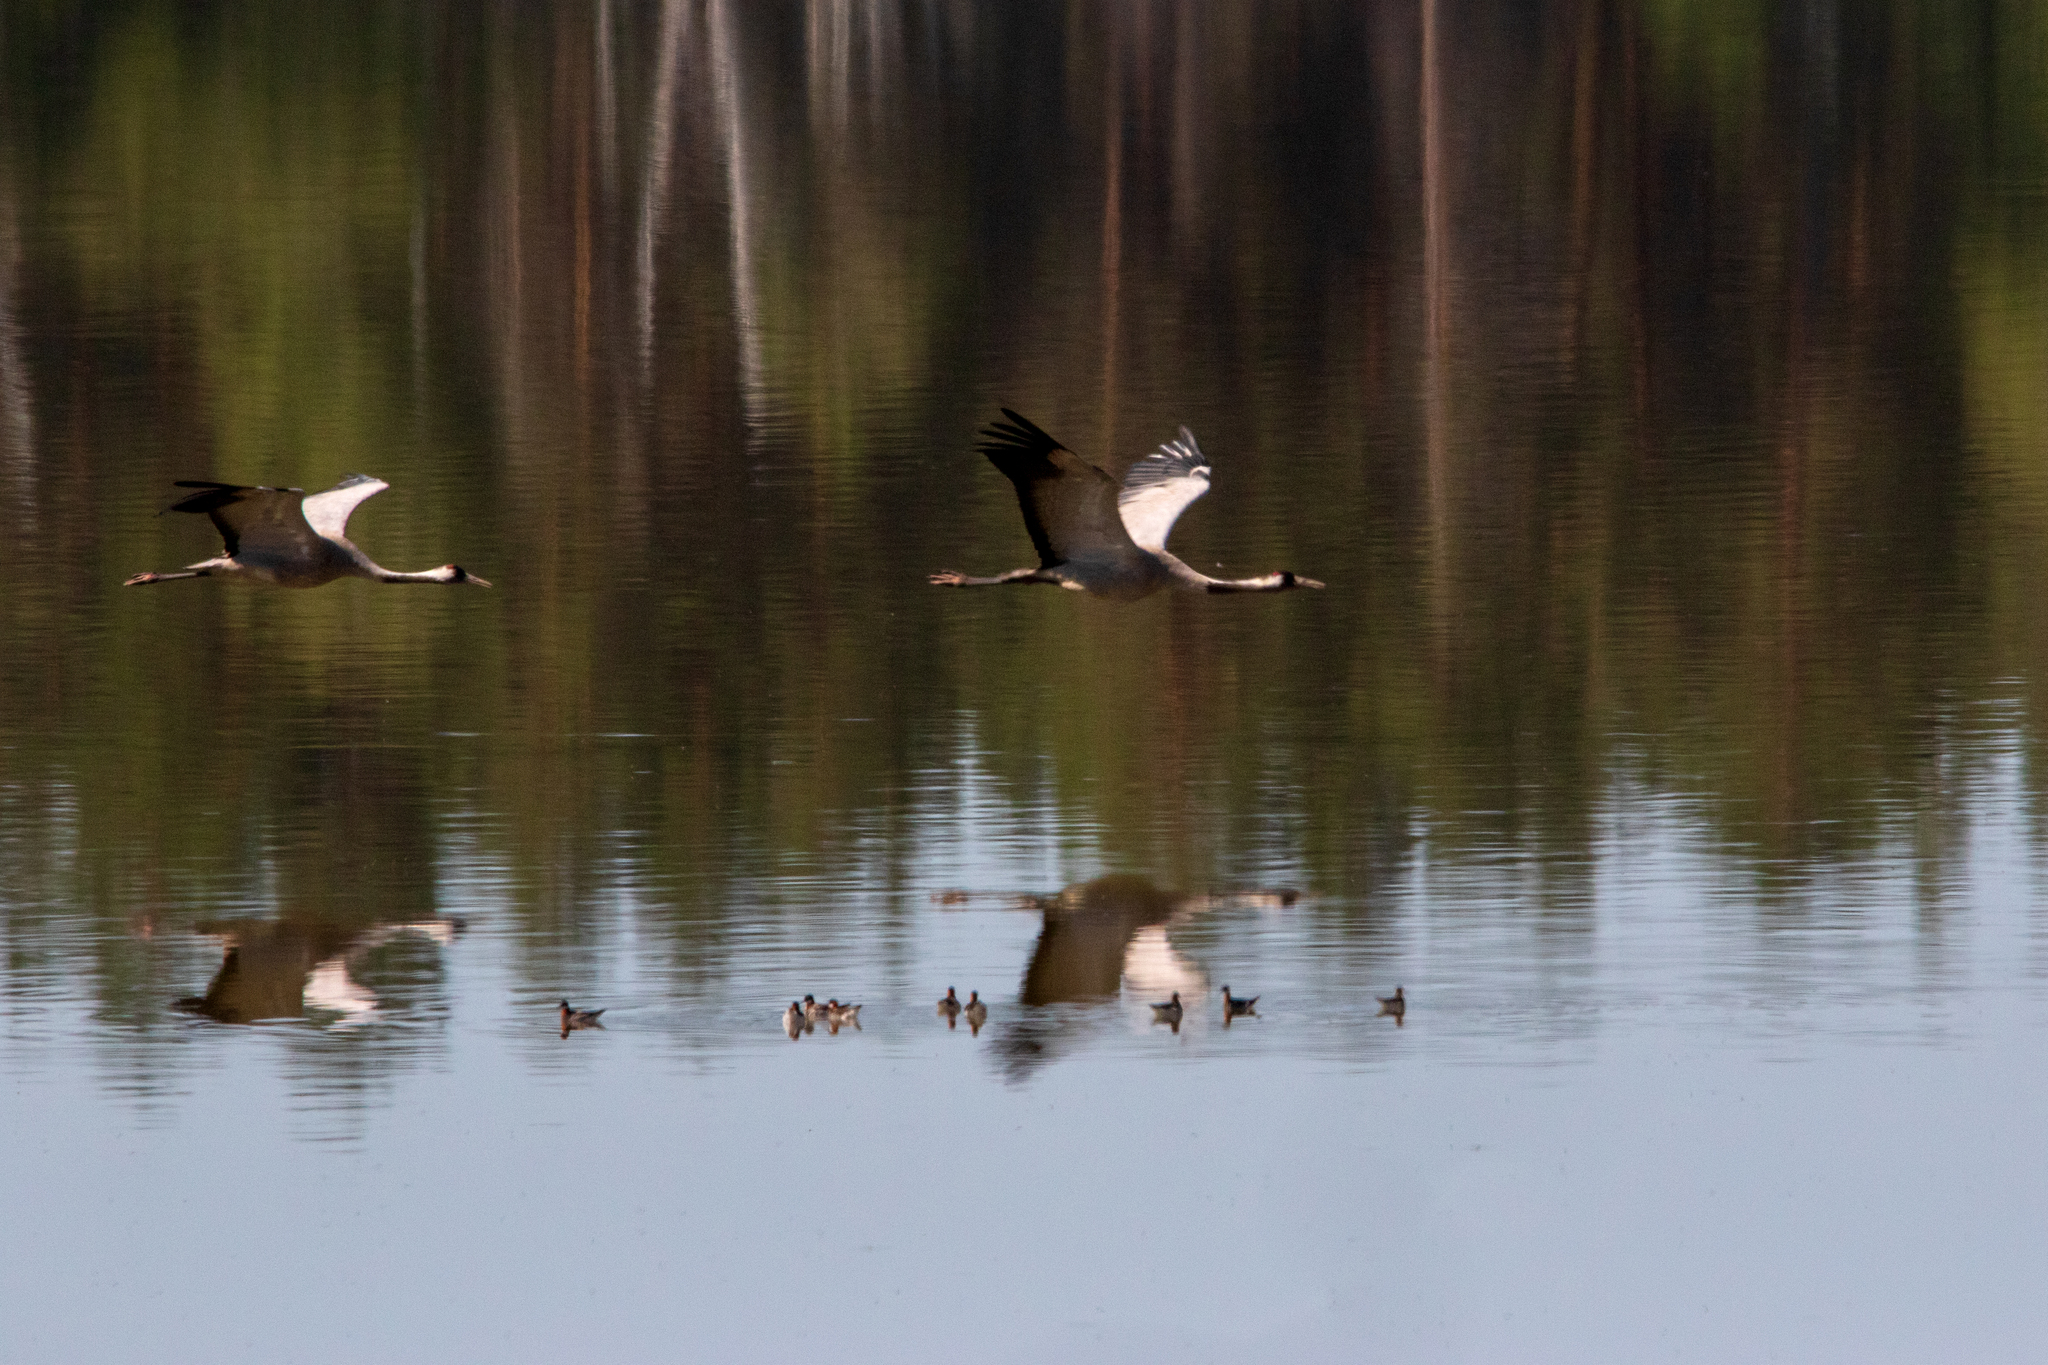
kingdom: Animalia
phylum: Chordata
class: Aves
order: Gruiformes
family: Gruidae
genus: Grus
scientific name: Grus grus
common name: Common crane
